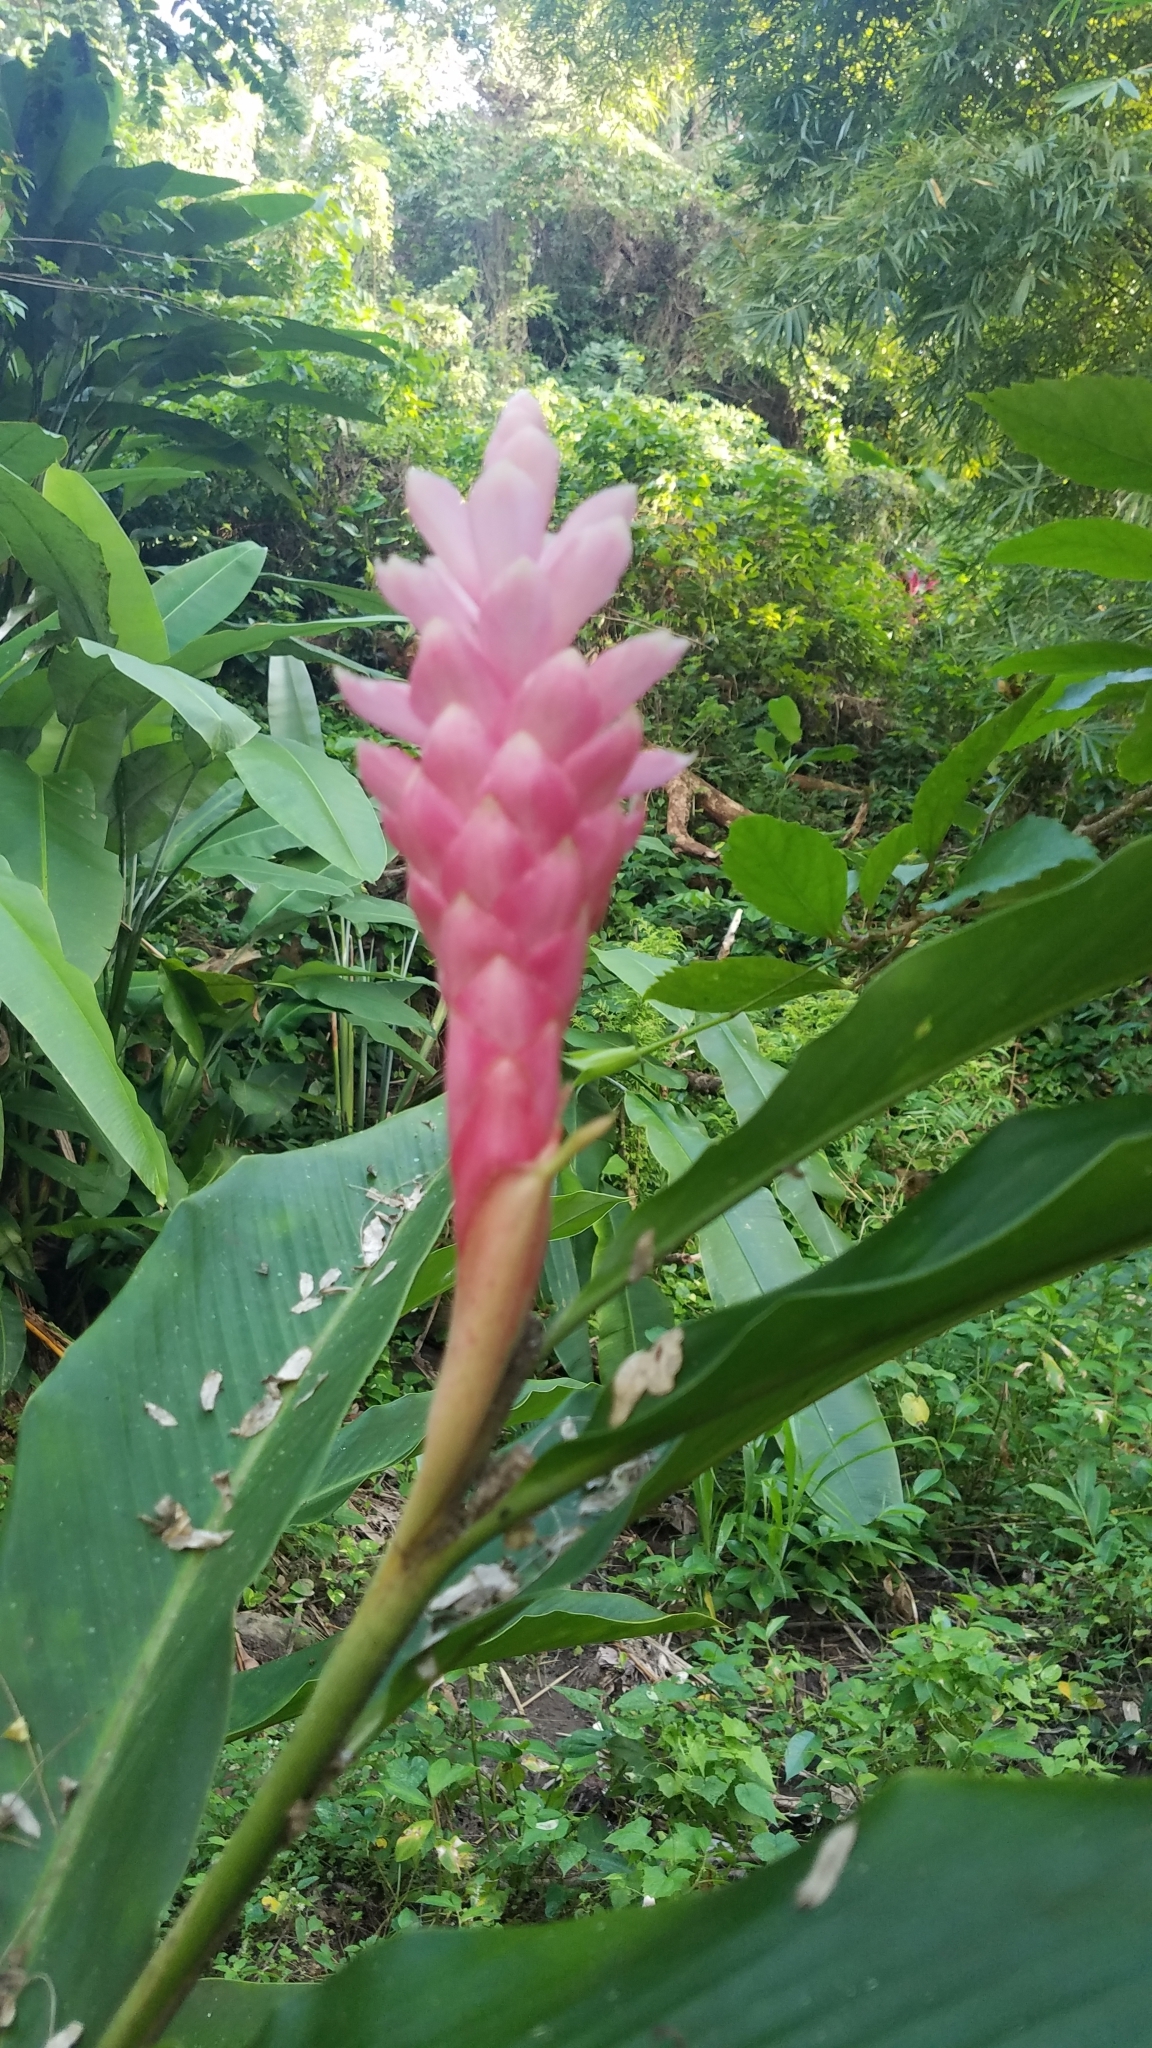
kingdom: Plantae
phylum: Tracheophyta
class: Liliopsida
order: Zingiberales
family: Zingiberaceae
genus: Alpinia
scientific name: Alpinia purpurata
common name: Red ginger
